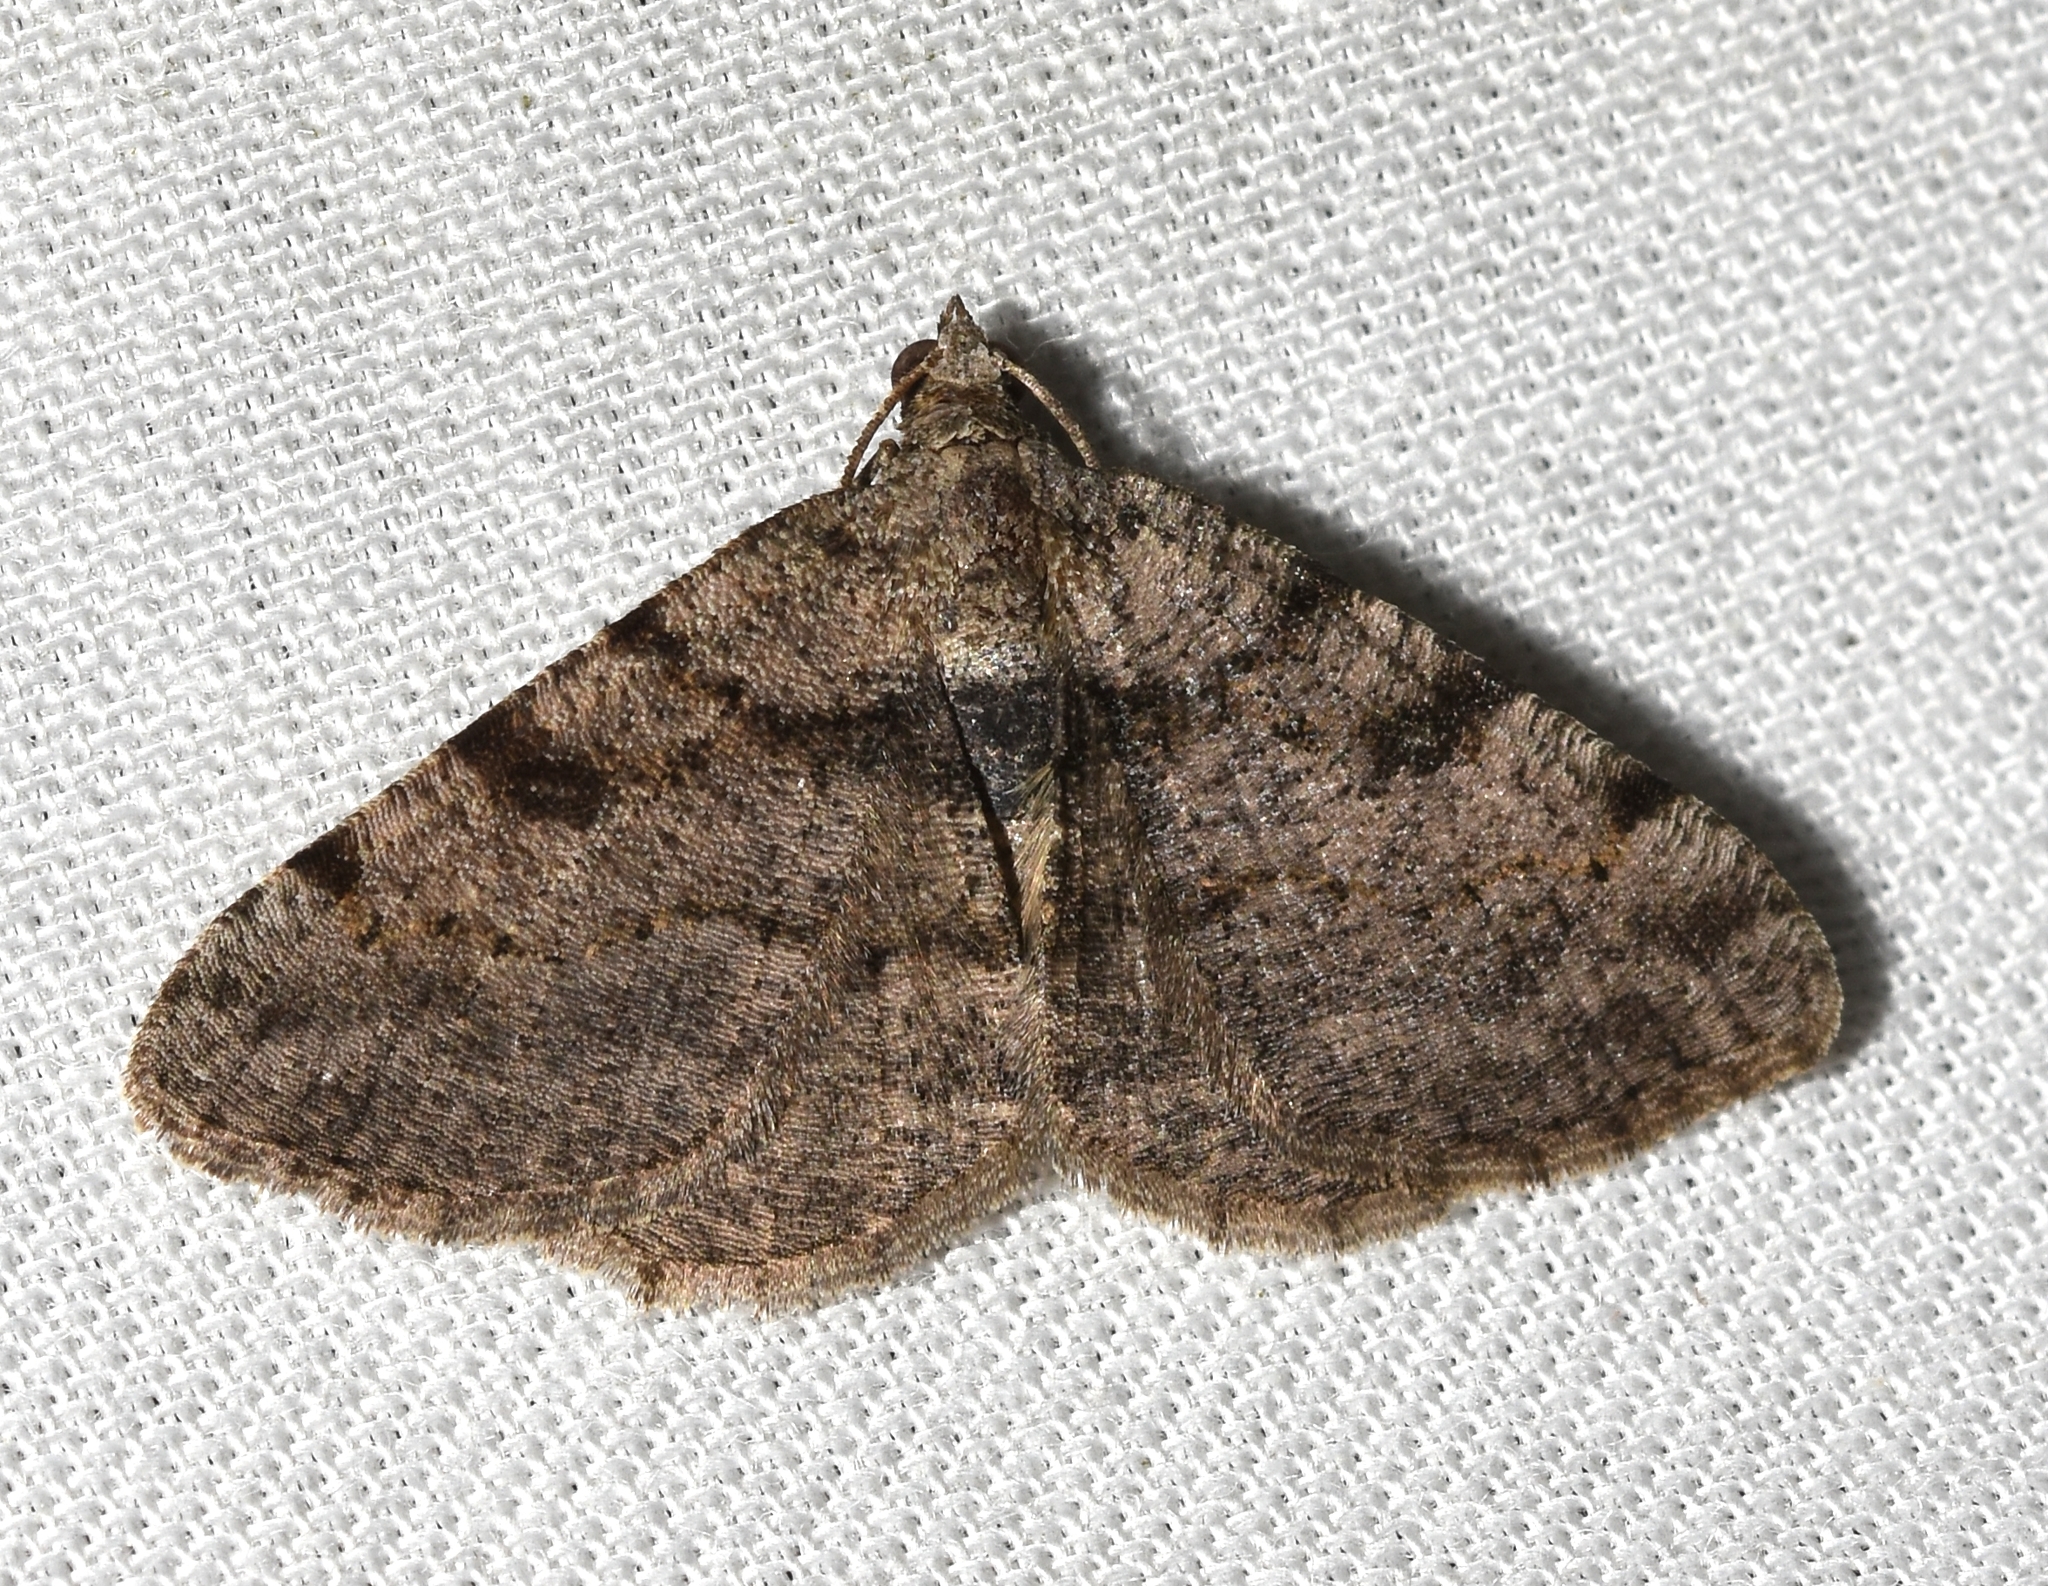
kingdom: Animalia
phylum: Arthropoda
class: Insecta
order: Lepidoptera
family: Geometridae
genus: Digrammia
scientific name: Digrammia gnophosaria
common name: Hollow-spotted angle
